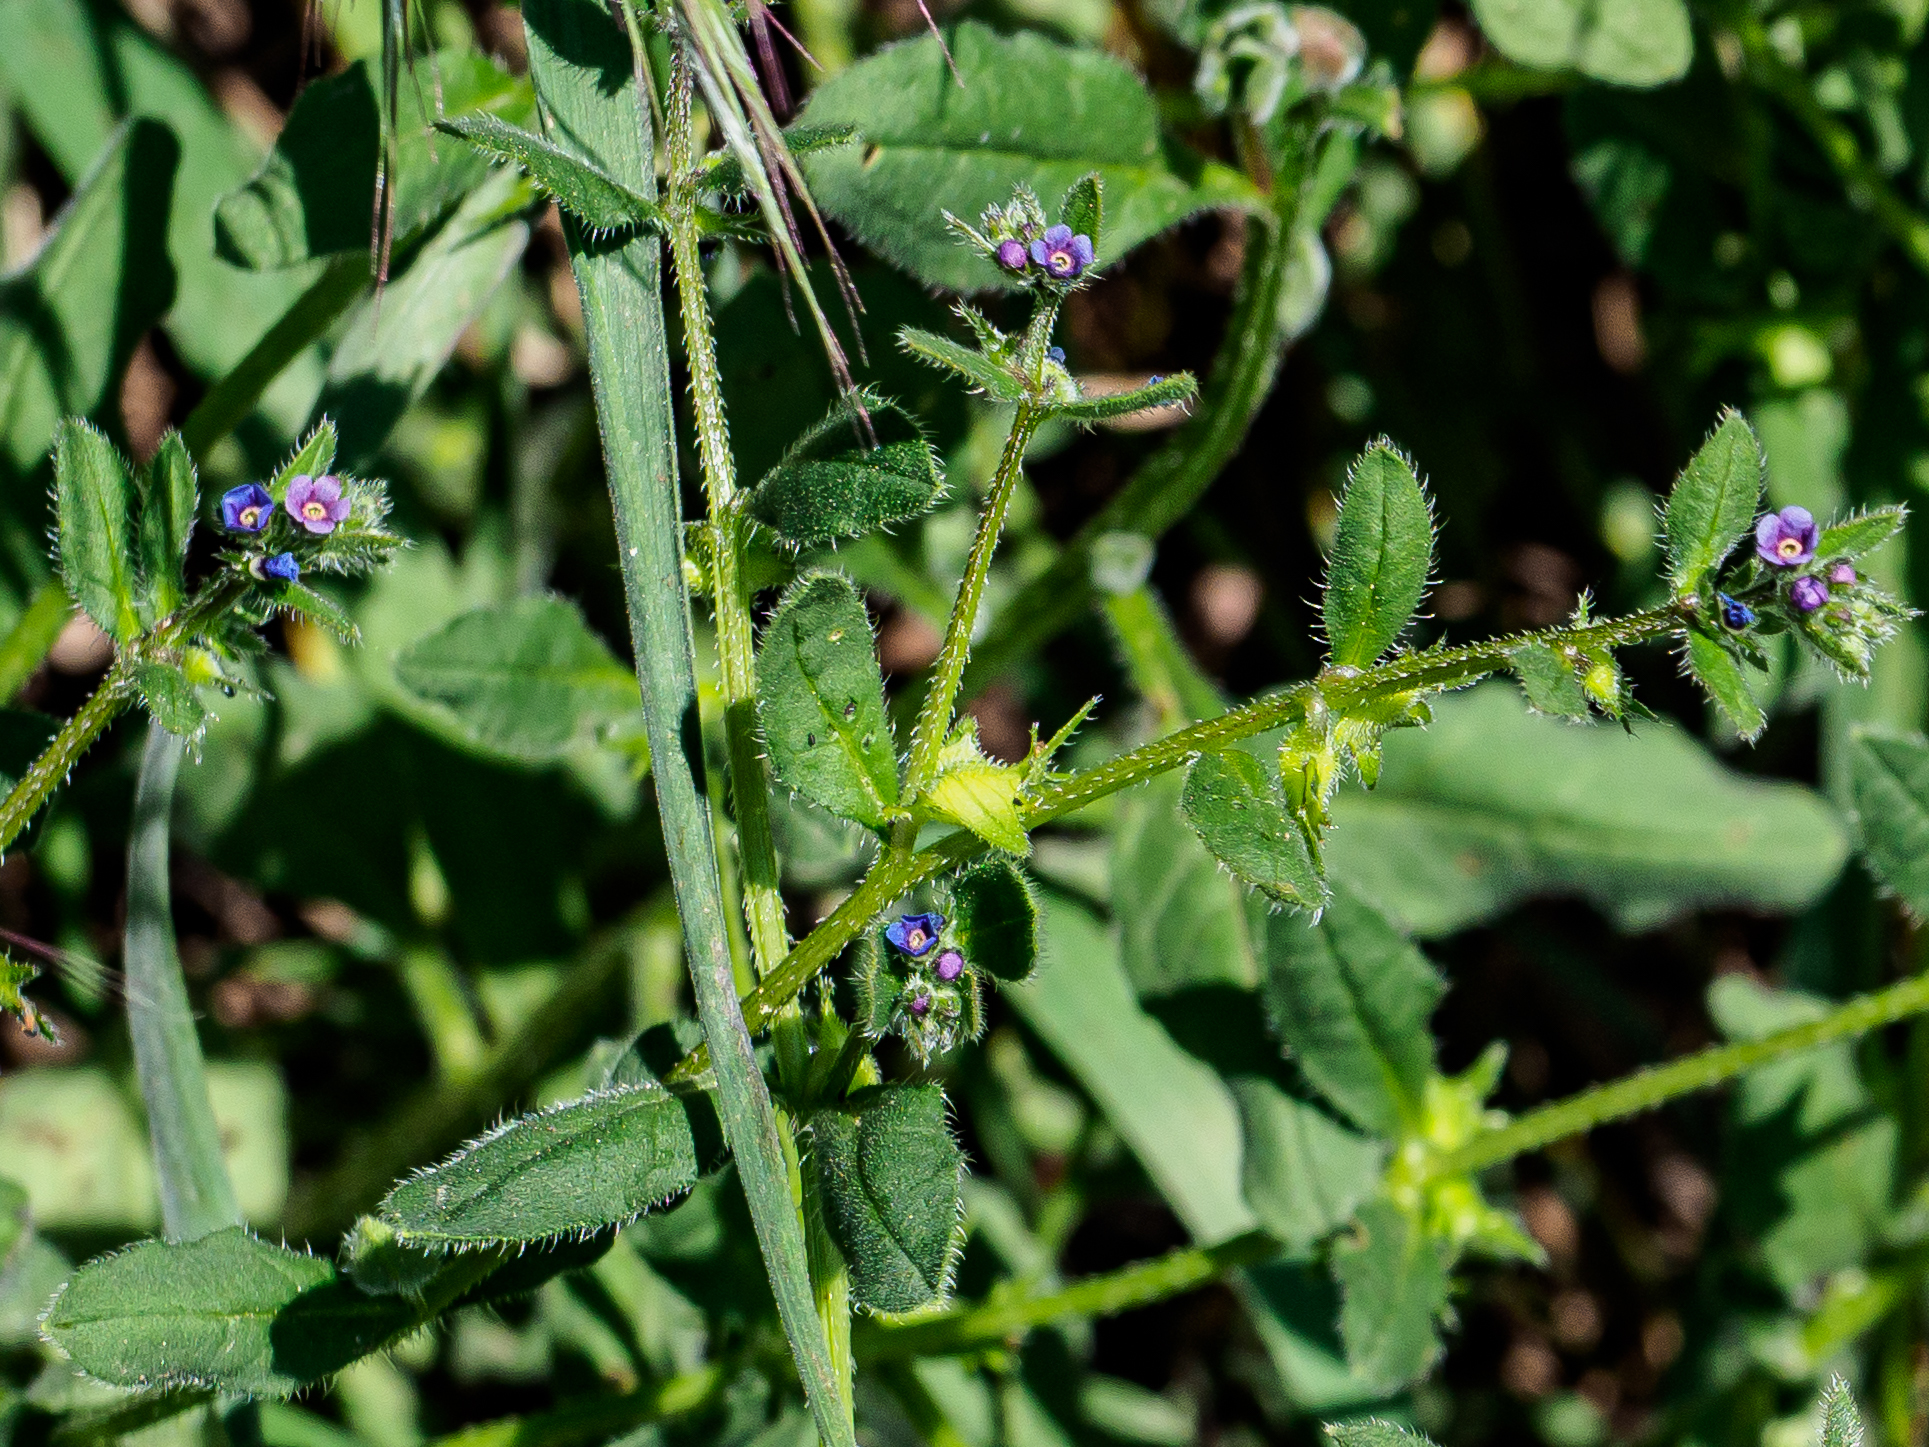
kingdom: Plantae
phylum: Tracheophyta
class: Magnoliopsida
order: Boraginales
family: Boraginaceae
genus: Asperugo
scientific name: Asperugo procumbens
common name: Madwort
